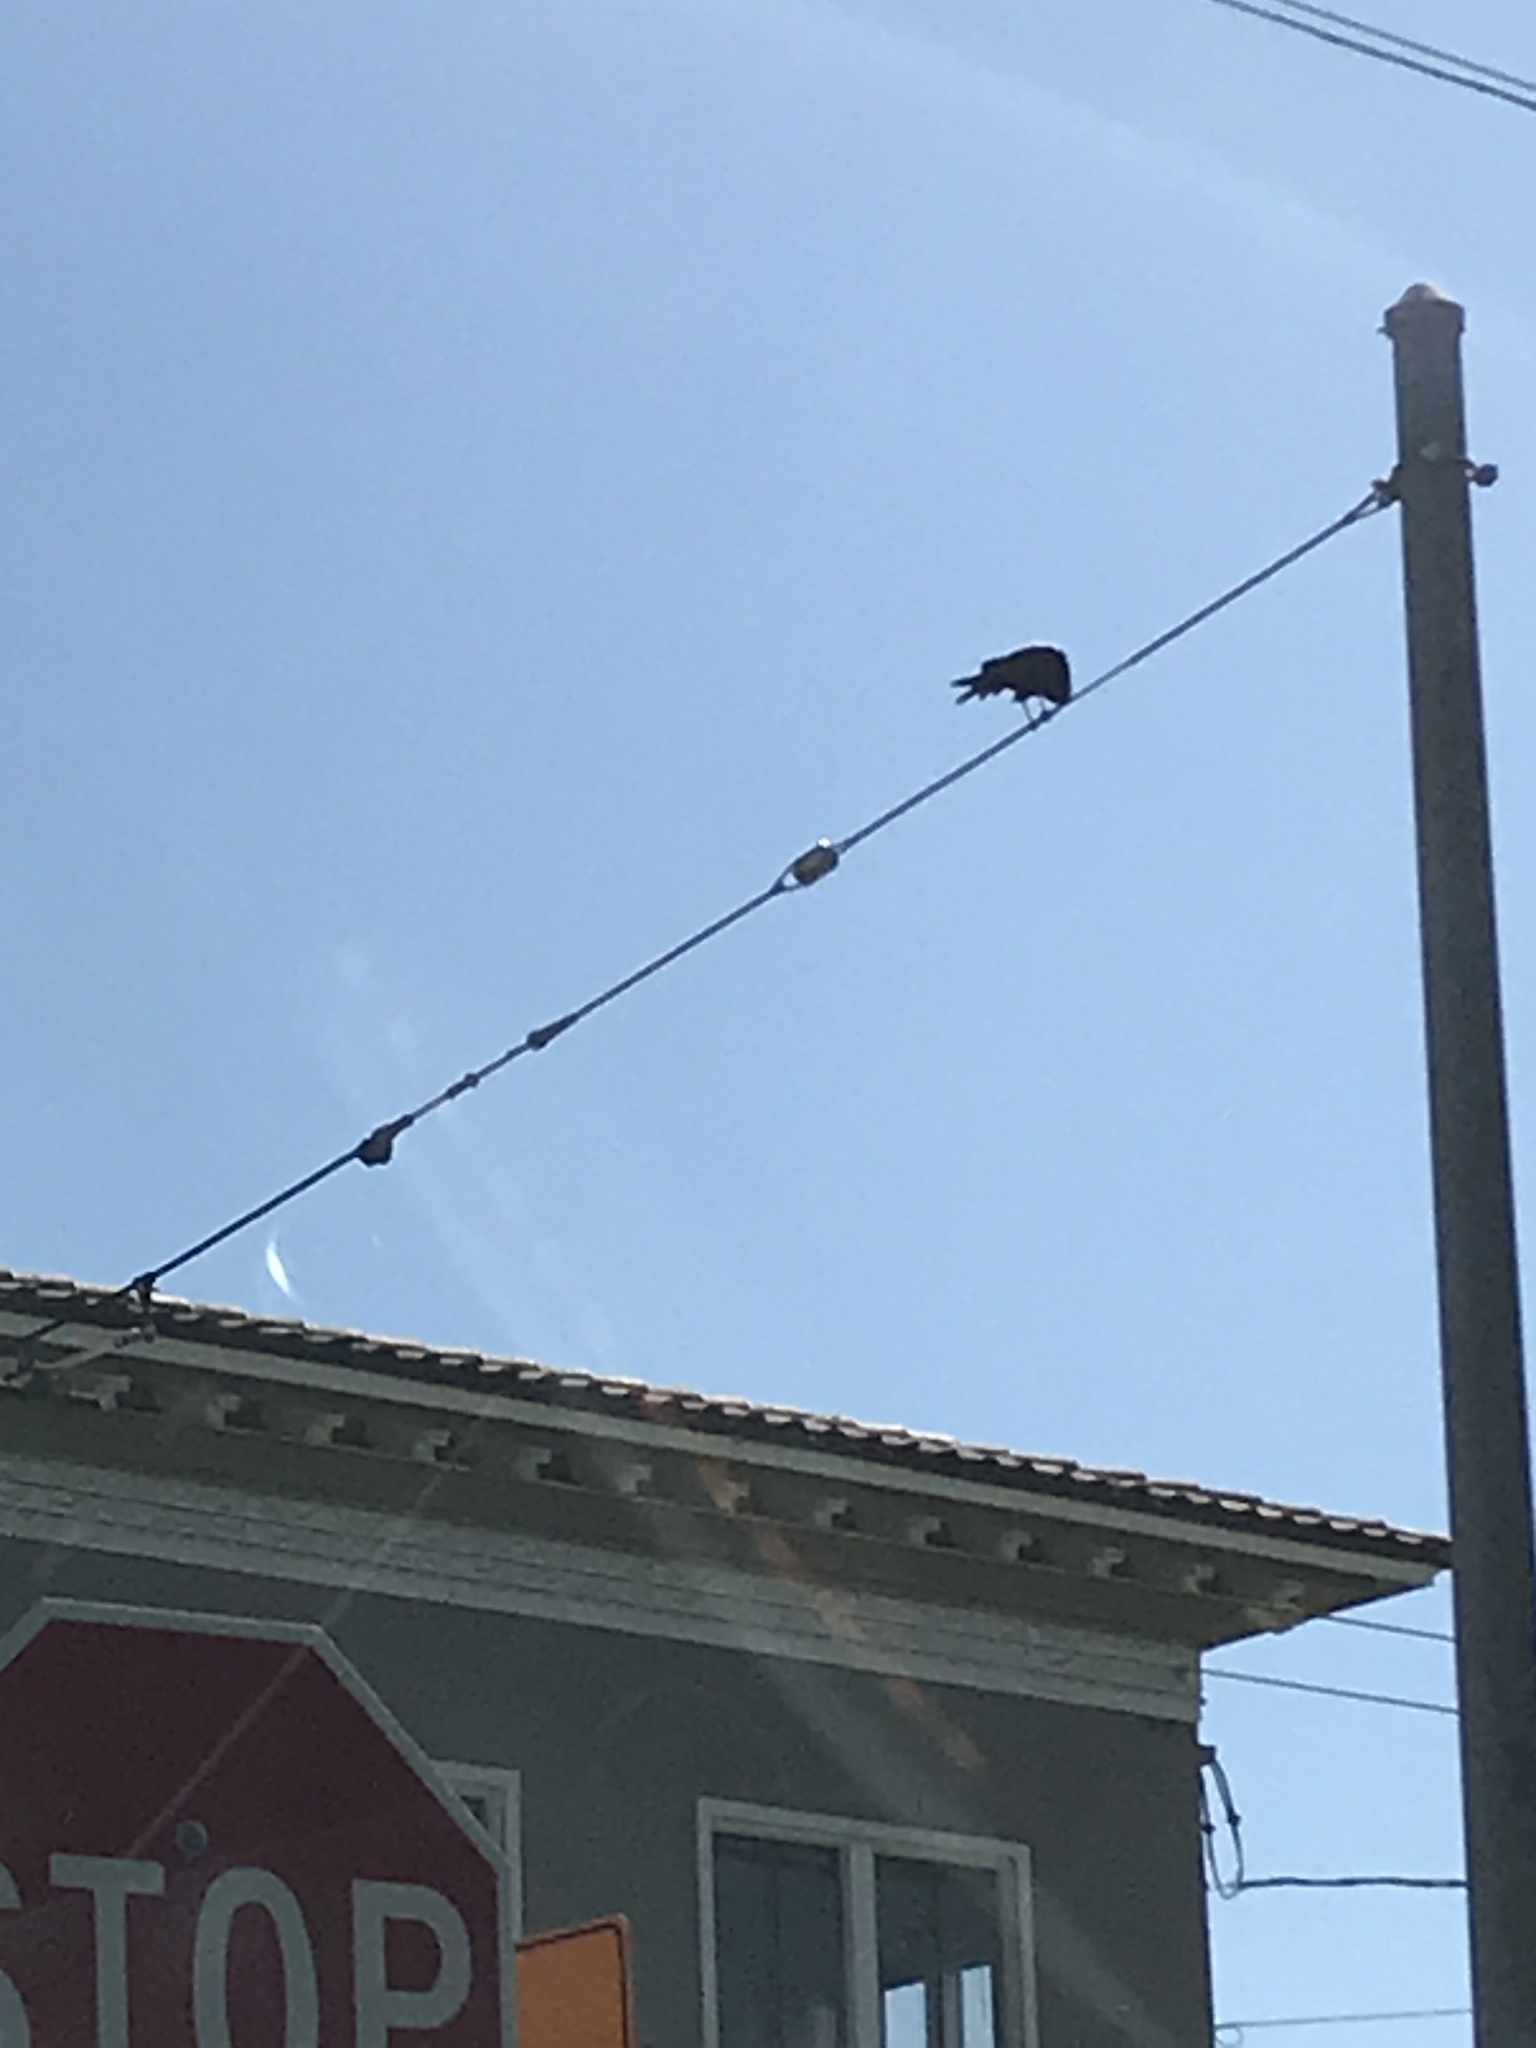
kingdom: Animalia
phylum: Chordata
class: Aves
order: Passeriformes
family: Corvidae
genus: Corvus
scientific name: Corvus brachyrhynchos
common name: American crow
